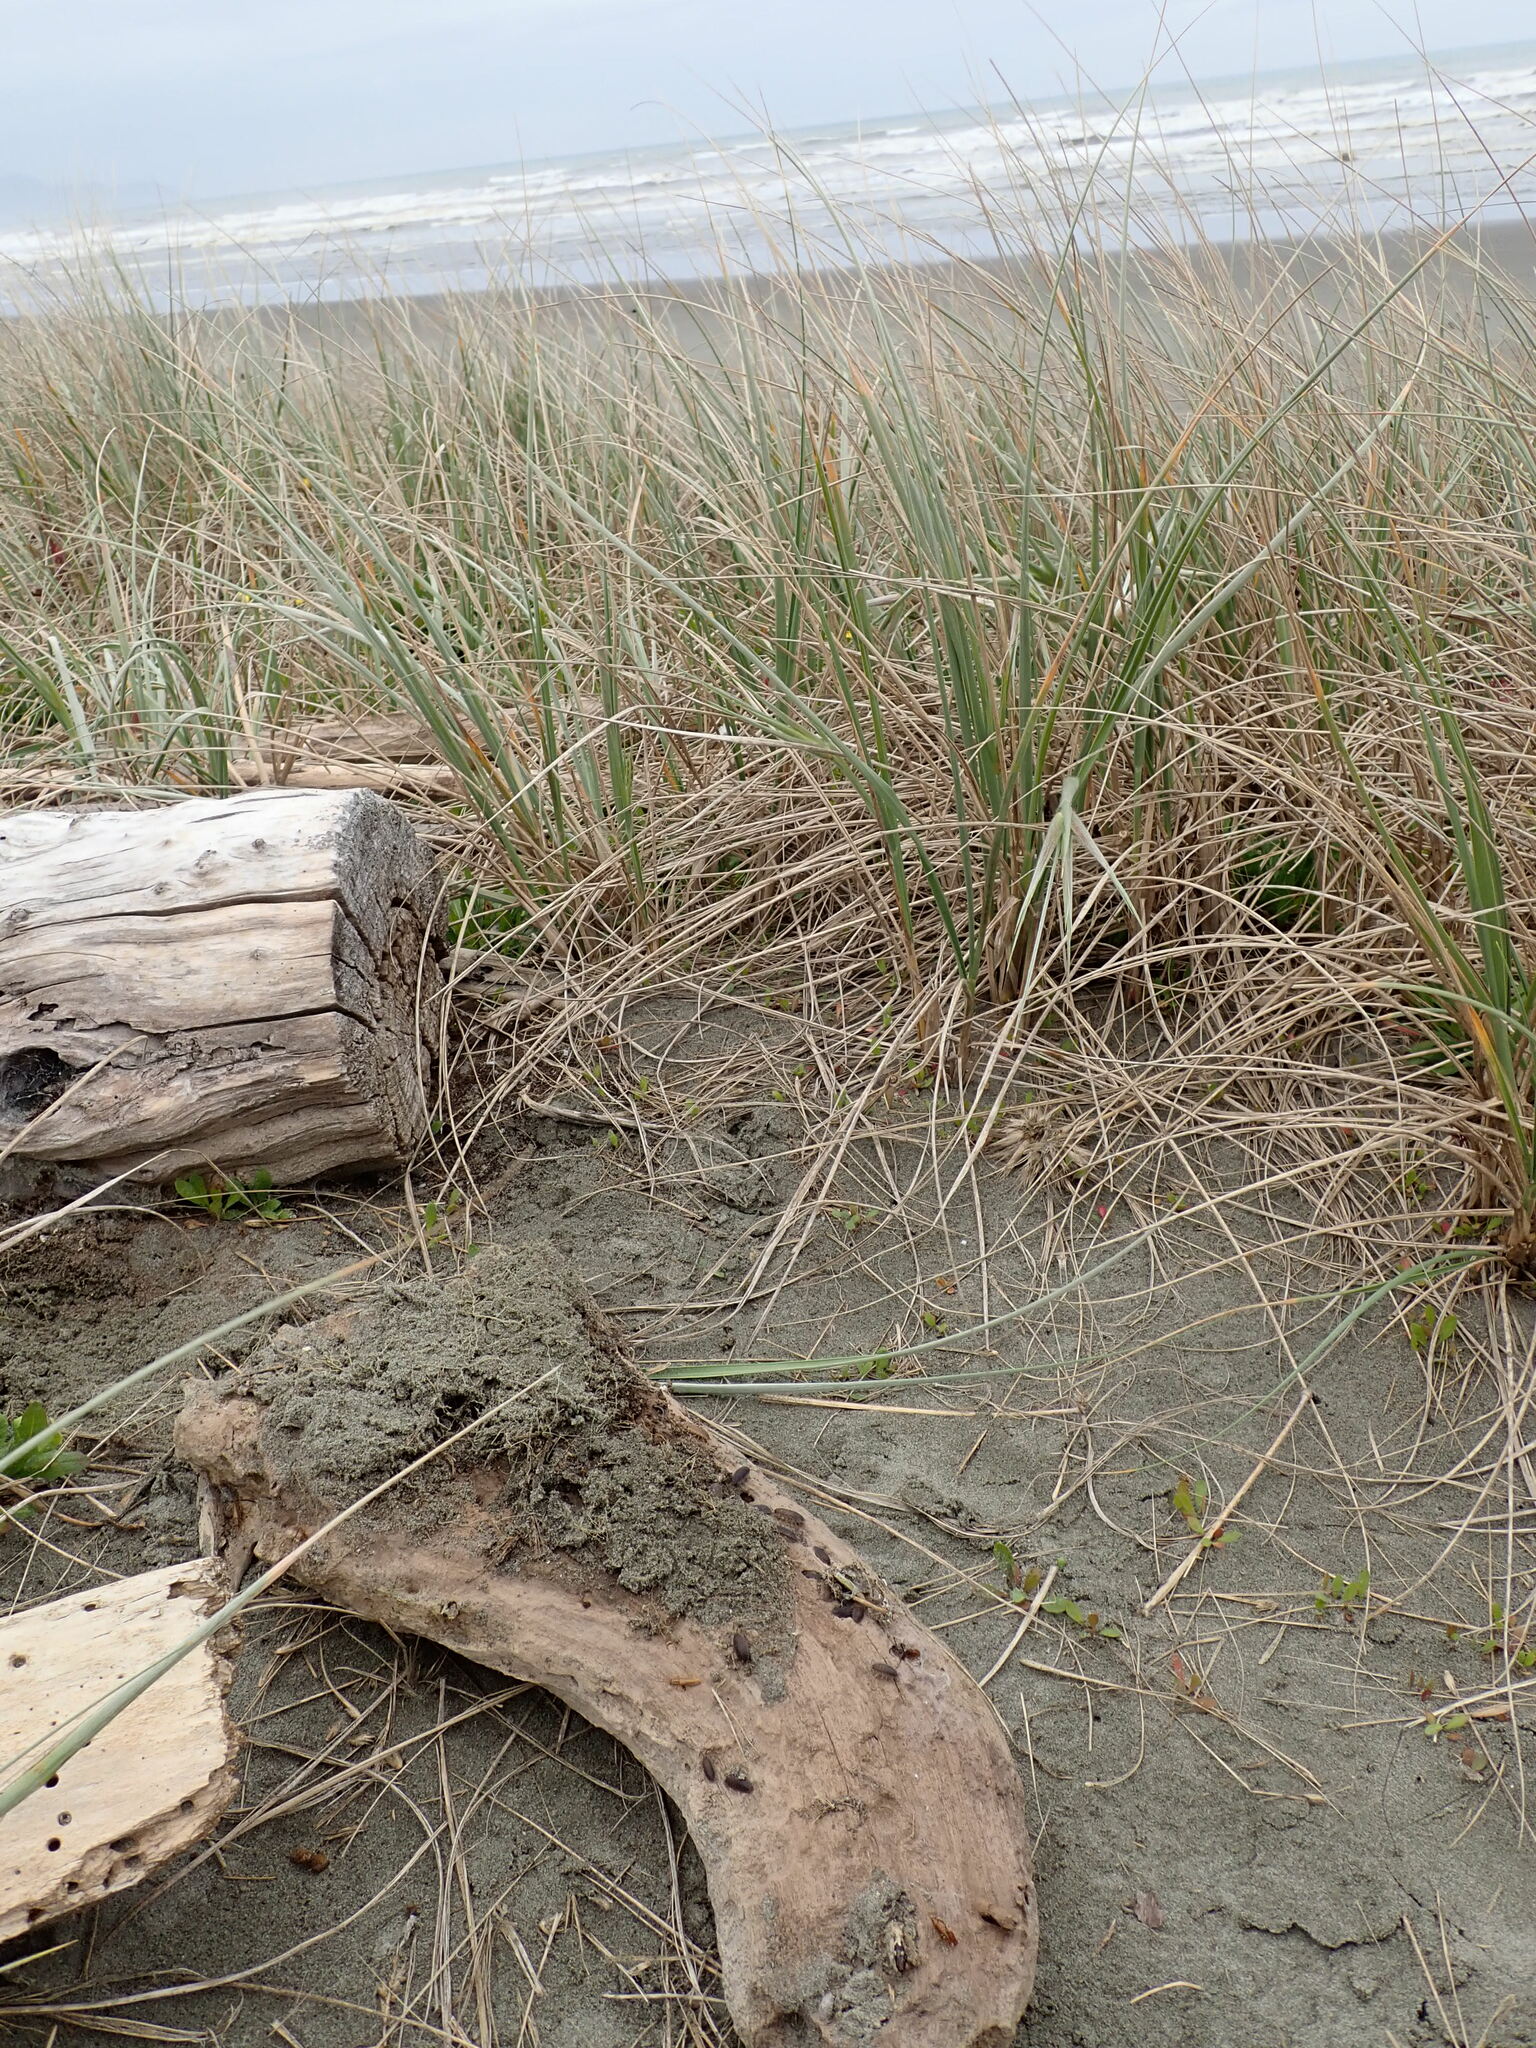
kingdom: Animalia
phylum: Mollusca
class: Gastropoda
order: Stylommatophora
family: Geomitridae
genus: Xeroplexa
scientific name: Xeroplexa intersecta
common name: Wrinkled snail
